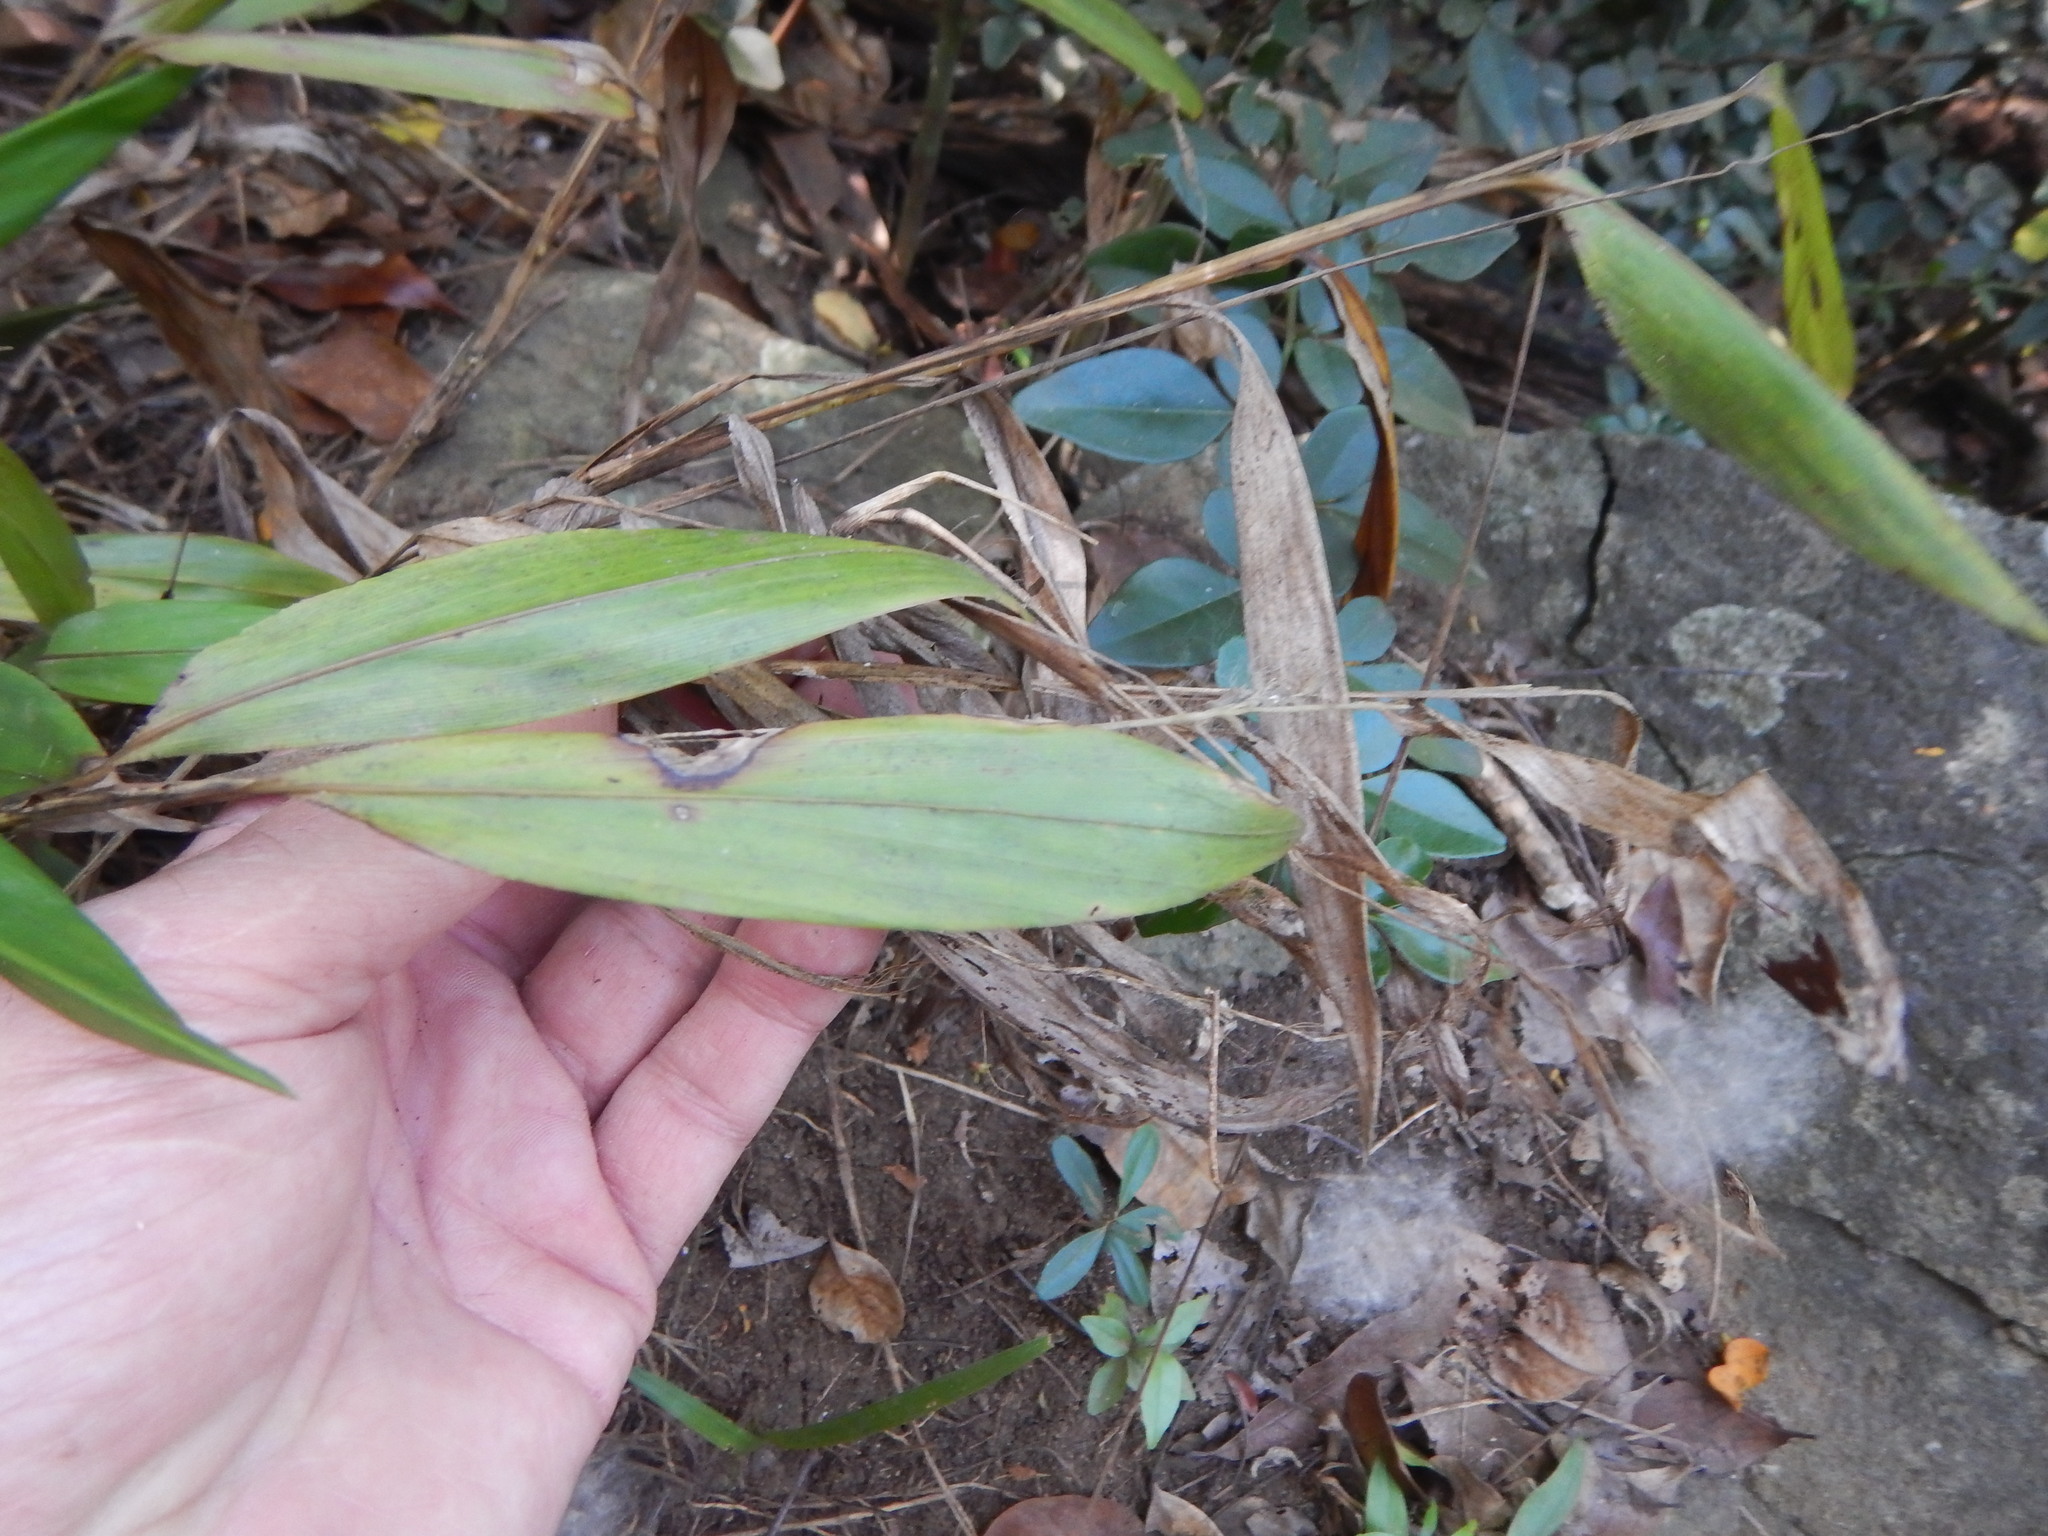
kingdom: Plantae
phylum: Tracheophyta
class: Liliopsida
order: Poales
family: Poaceae
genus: Pharus
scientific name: Pharus lappulaceus
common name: Creeping leafstalk grass
